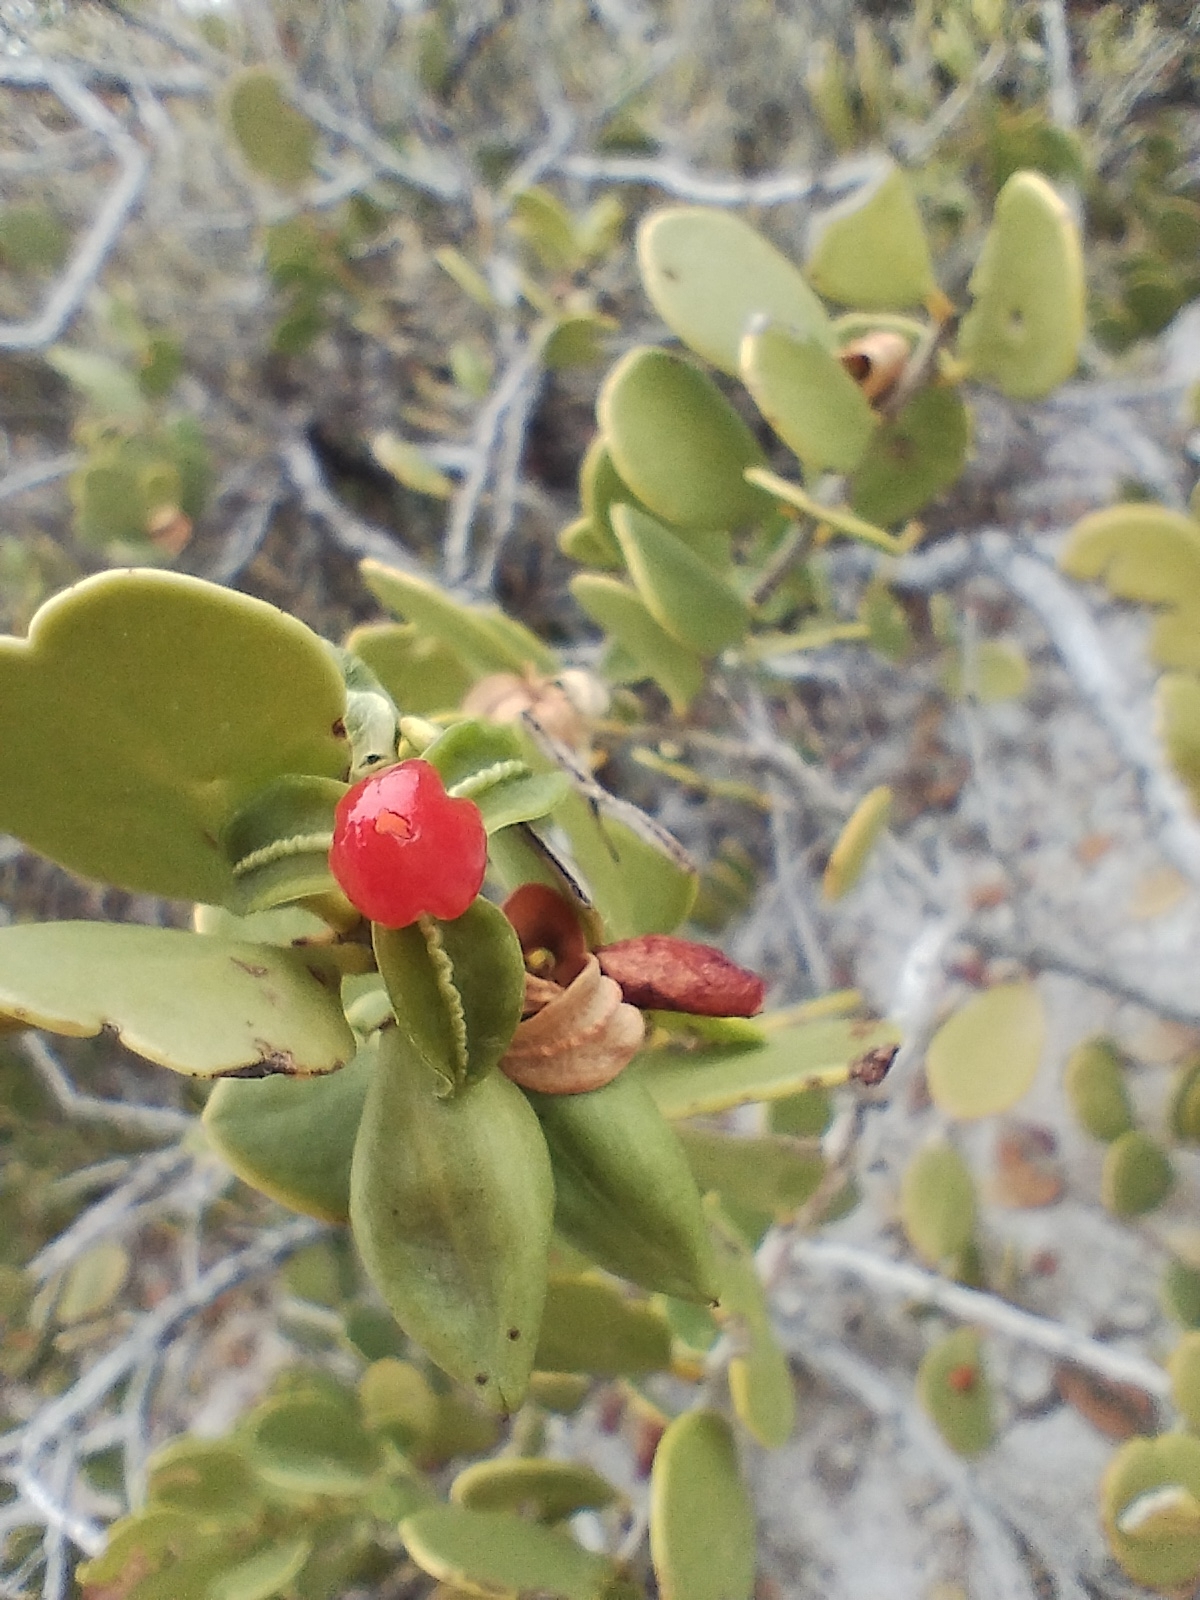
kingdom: Plantae
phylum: Tracheophyta
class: Magnoliopsida
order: Celastrales
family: Celastraceae
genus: Tricerma
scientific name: Tricerma vitis-idaeum
